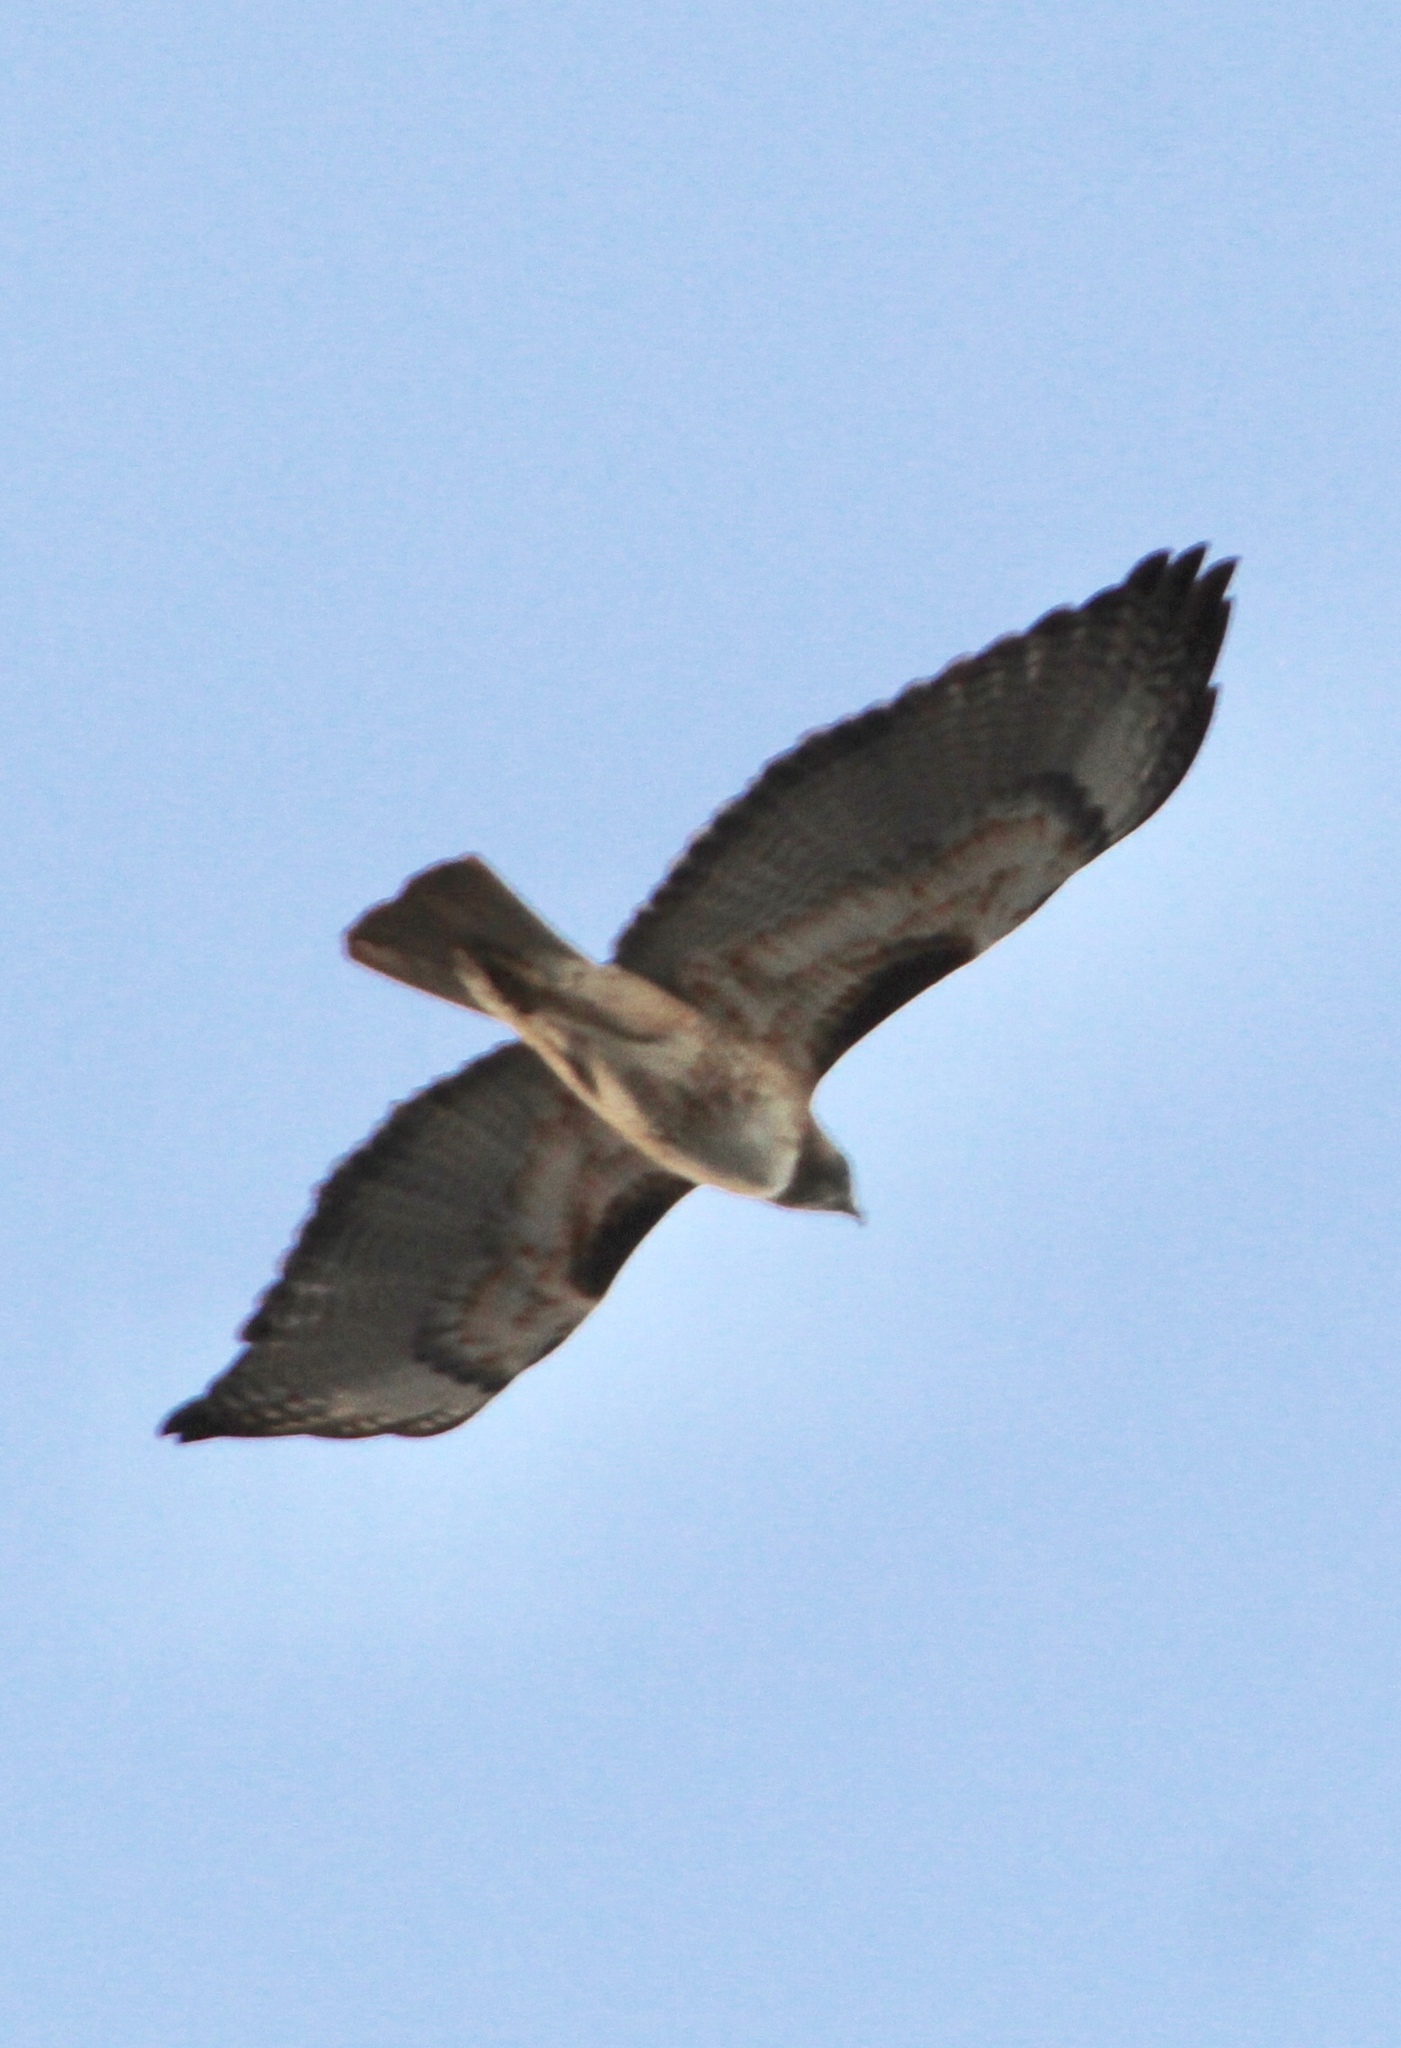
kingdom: Animalia
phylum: Chordata
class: Aves
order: Accipitriformes
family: Accipitridae
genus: Buteo
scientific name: Buteo jamaicensis
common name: Red-tailed hawk
